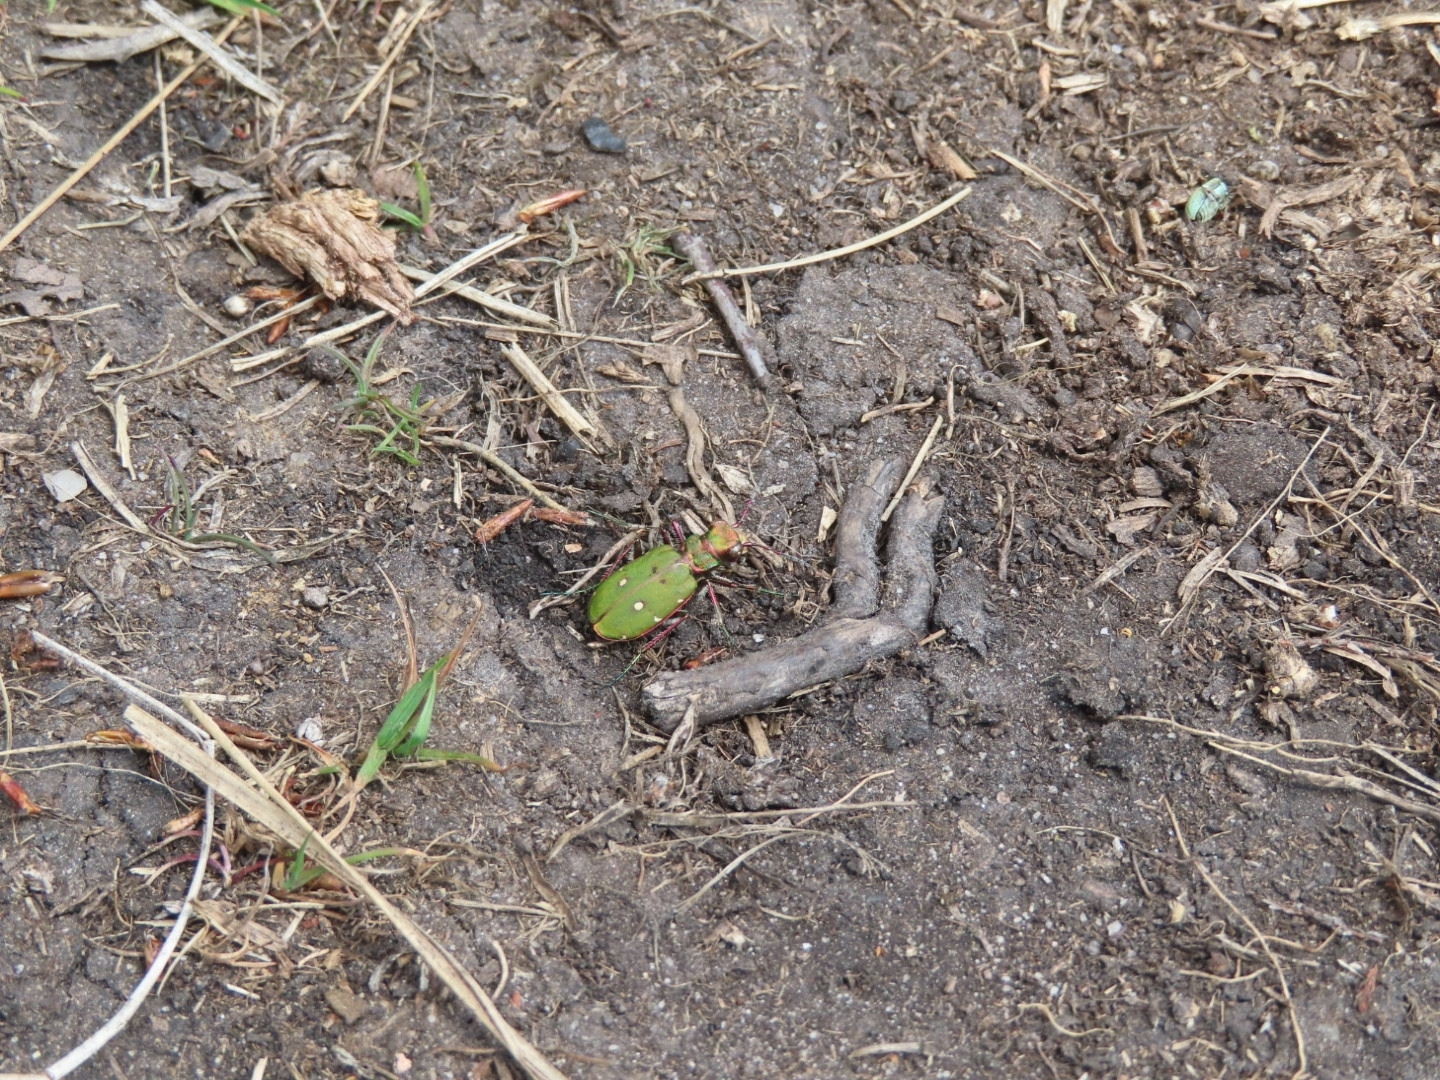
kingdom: Animalia
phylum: Arthropoda
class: Insecta
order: Coleoptera
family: Carabidae
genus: Cicindela
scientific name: Cicindela campestris
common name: Common tiger beetle
